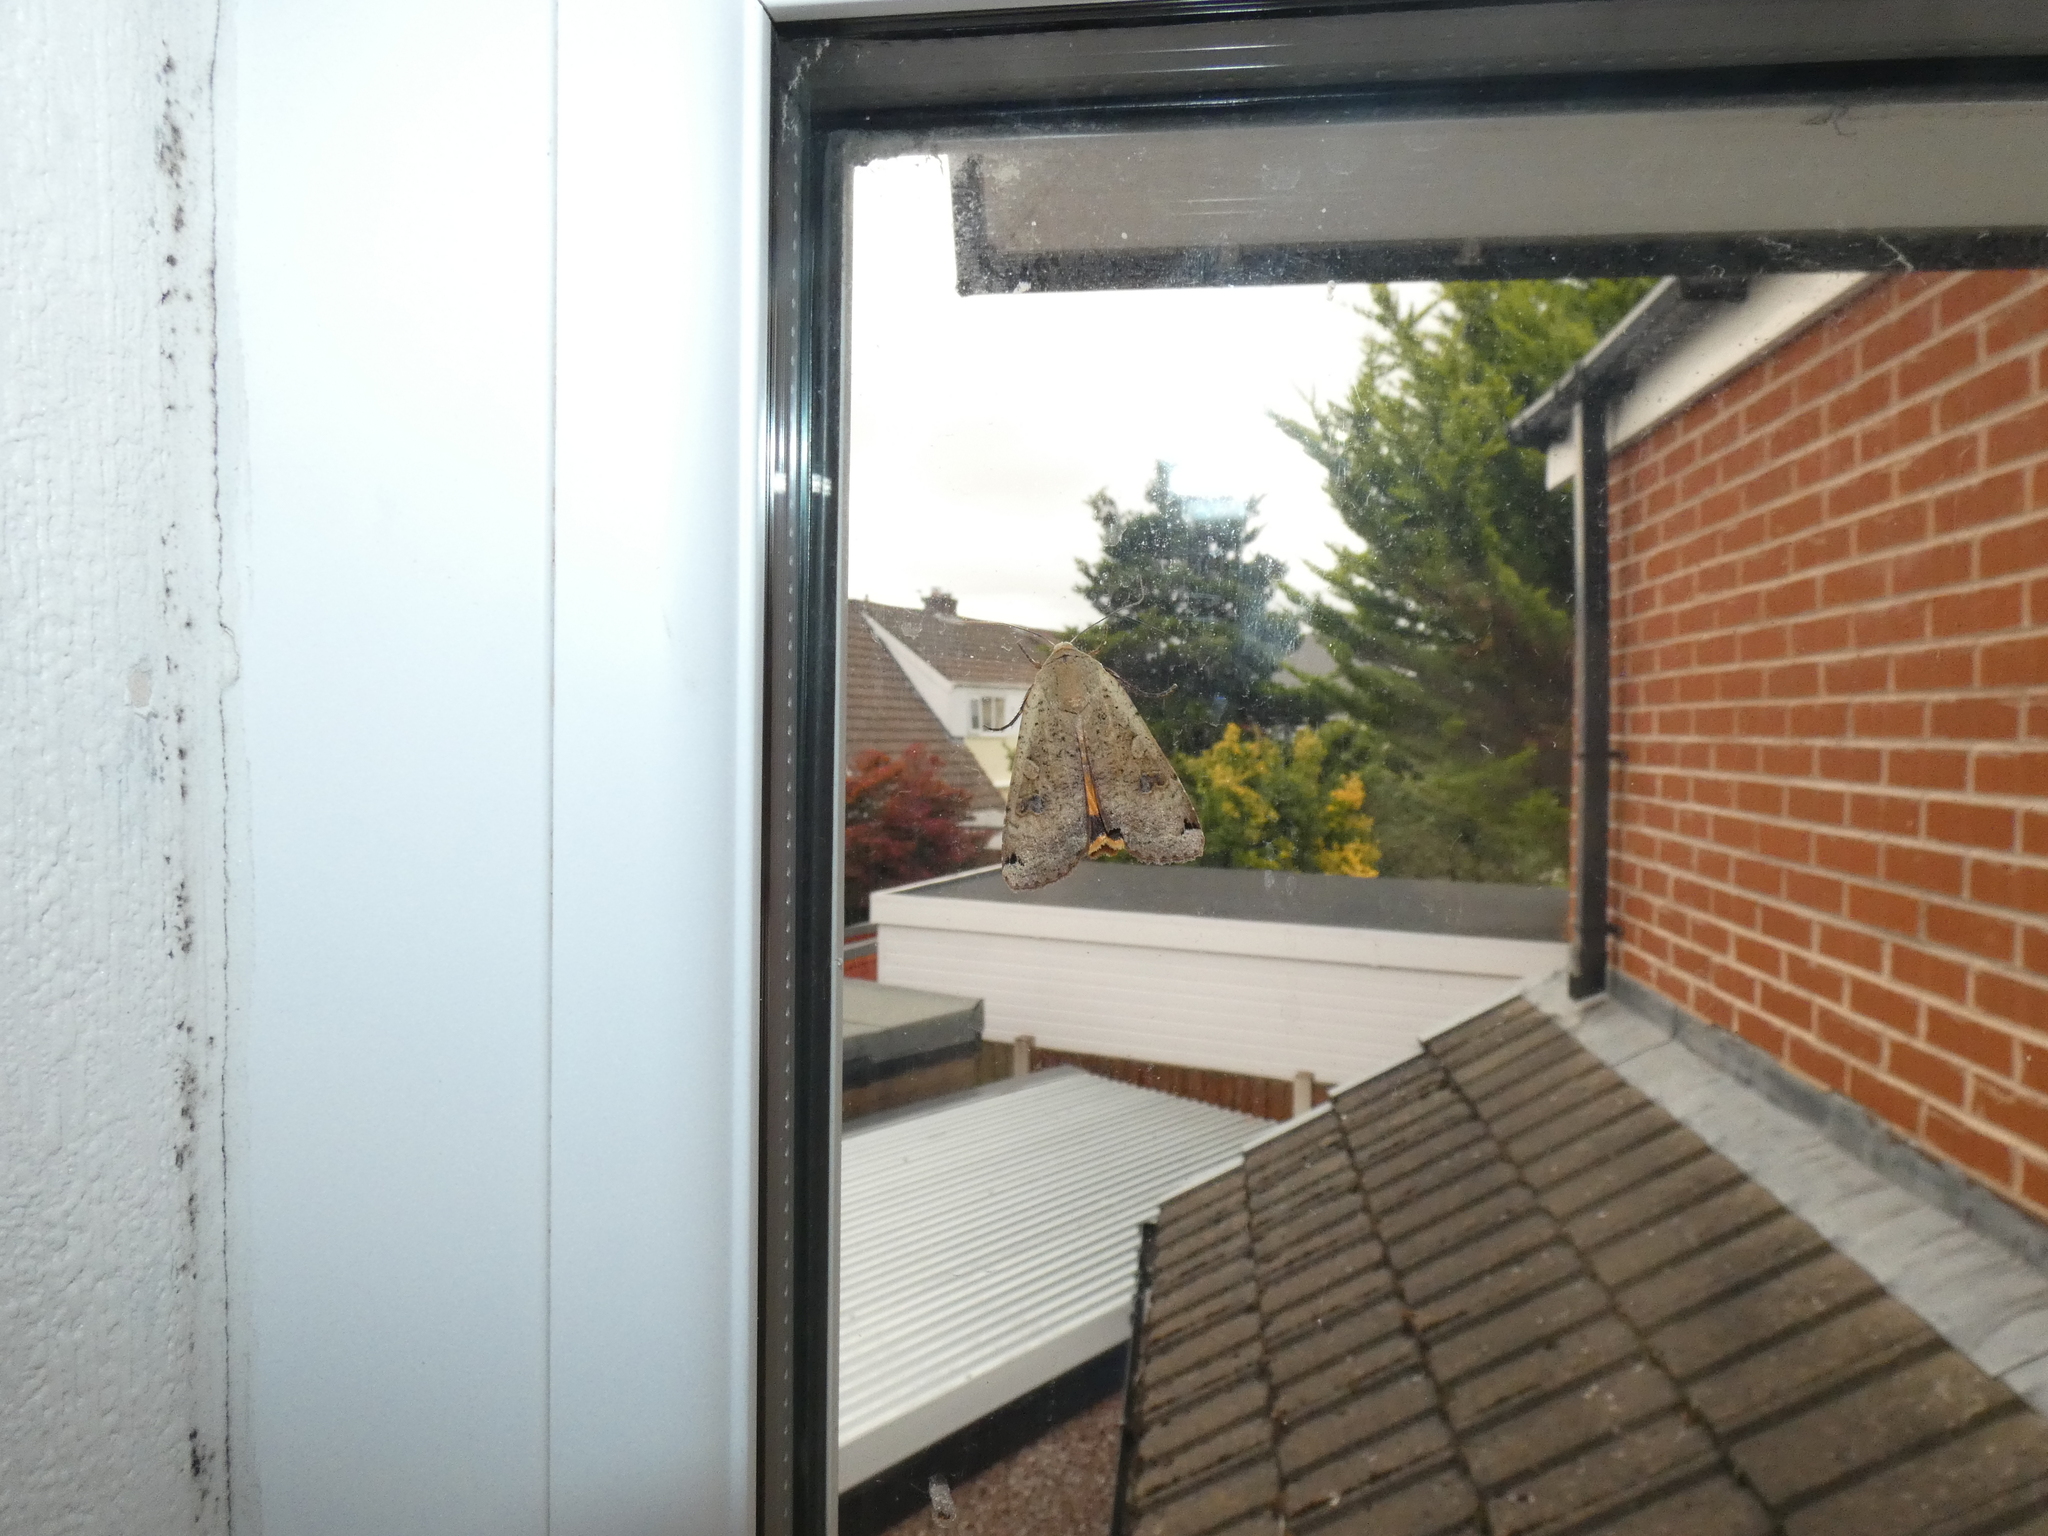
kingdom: Animalia
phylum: Arthropoda
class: Insecta
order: Lepidoptera
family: Noctuidae
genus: Noctua
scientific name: Noctua pronuba
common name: Large yellow underwing
